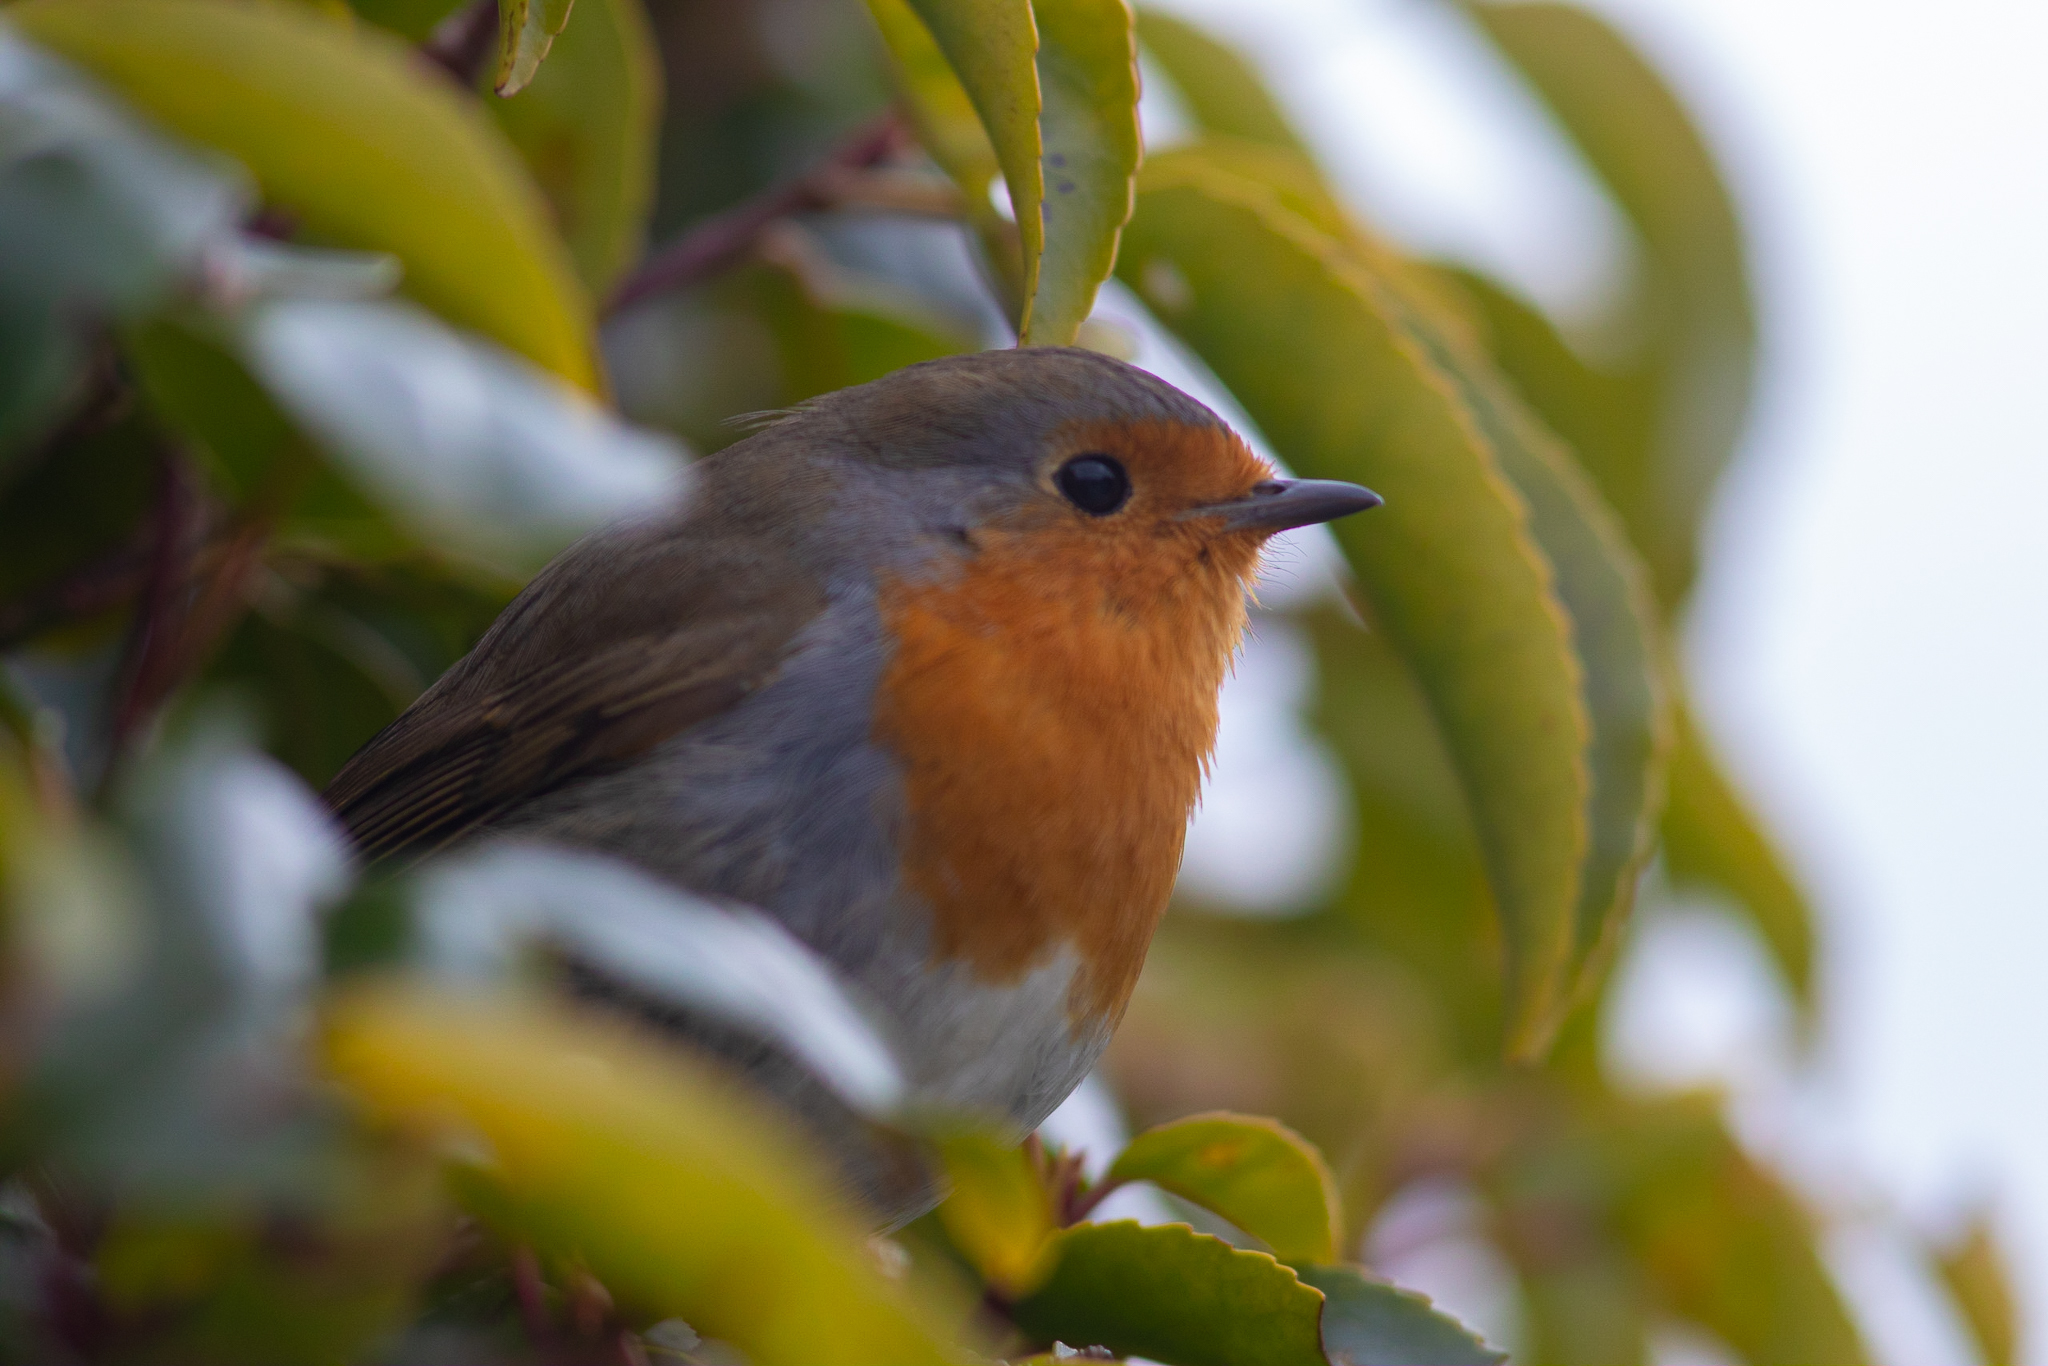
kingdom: Animalia
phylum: Chordata
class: Aves
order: Passeriformes
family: Muscicapidae
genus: Erithacus
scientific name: Erithacus rubecula
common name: European robin
